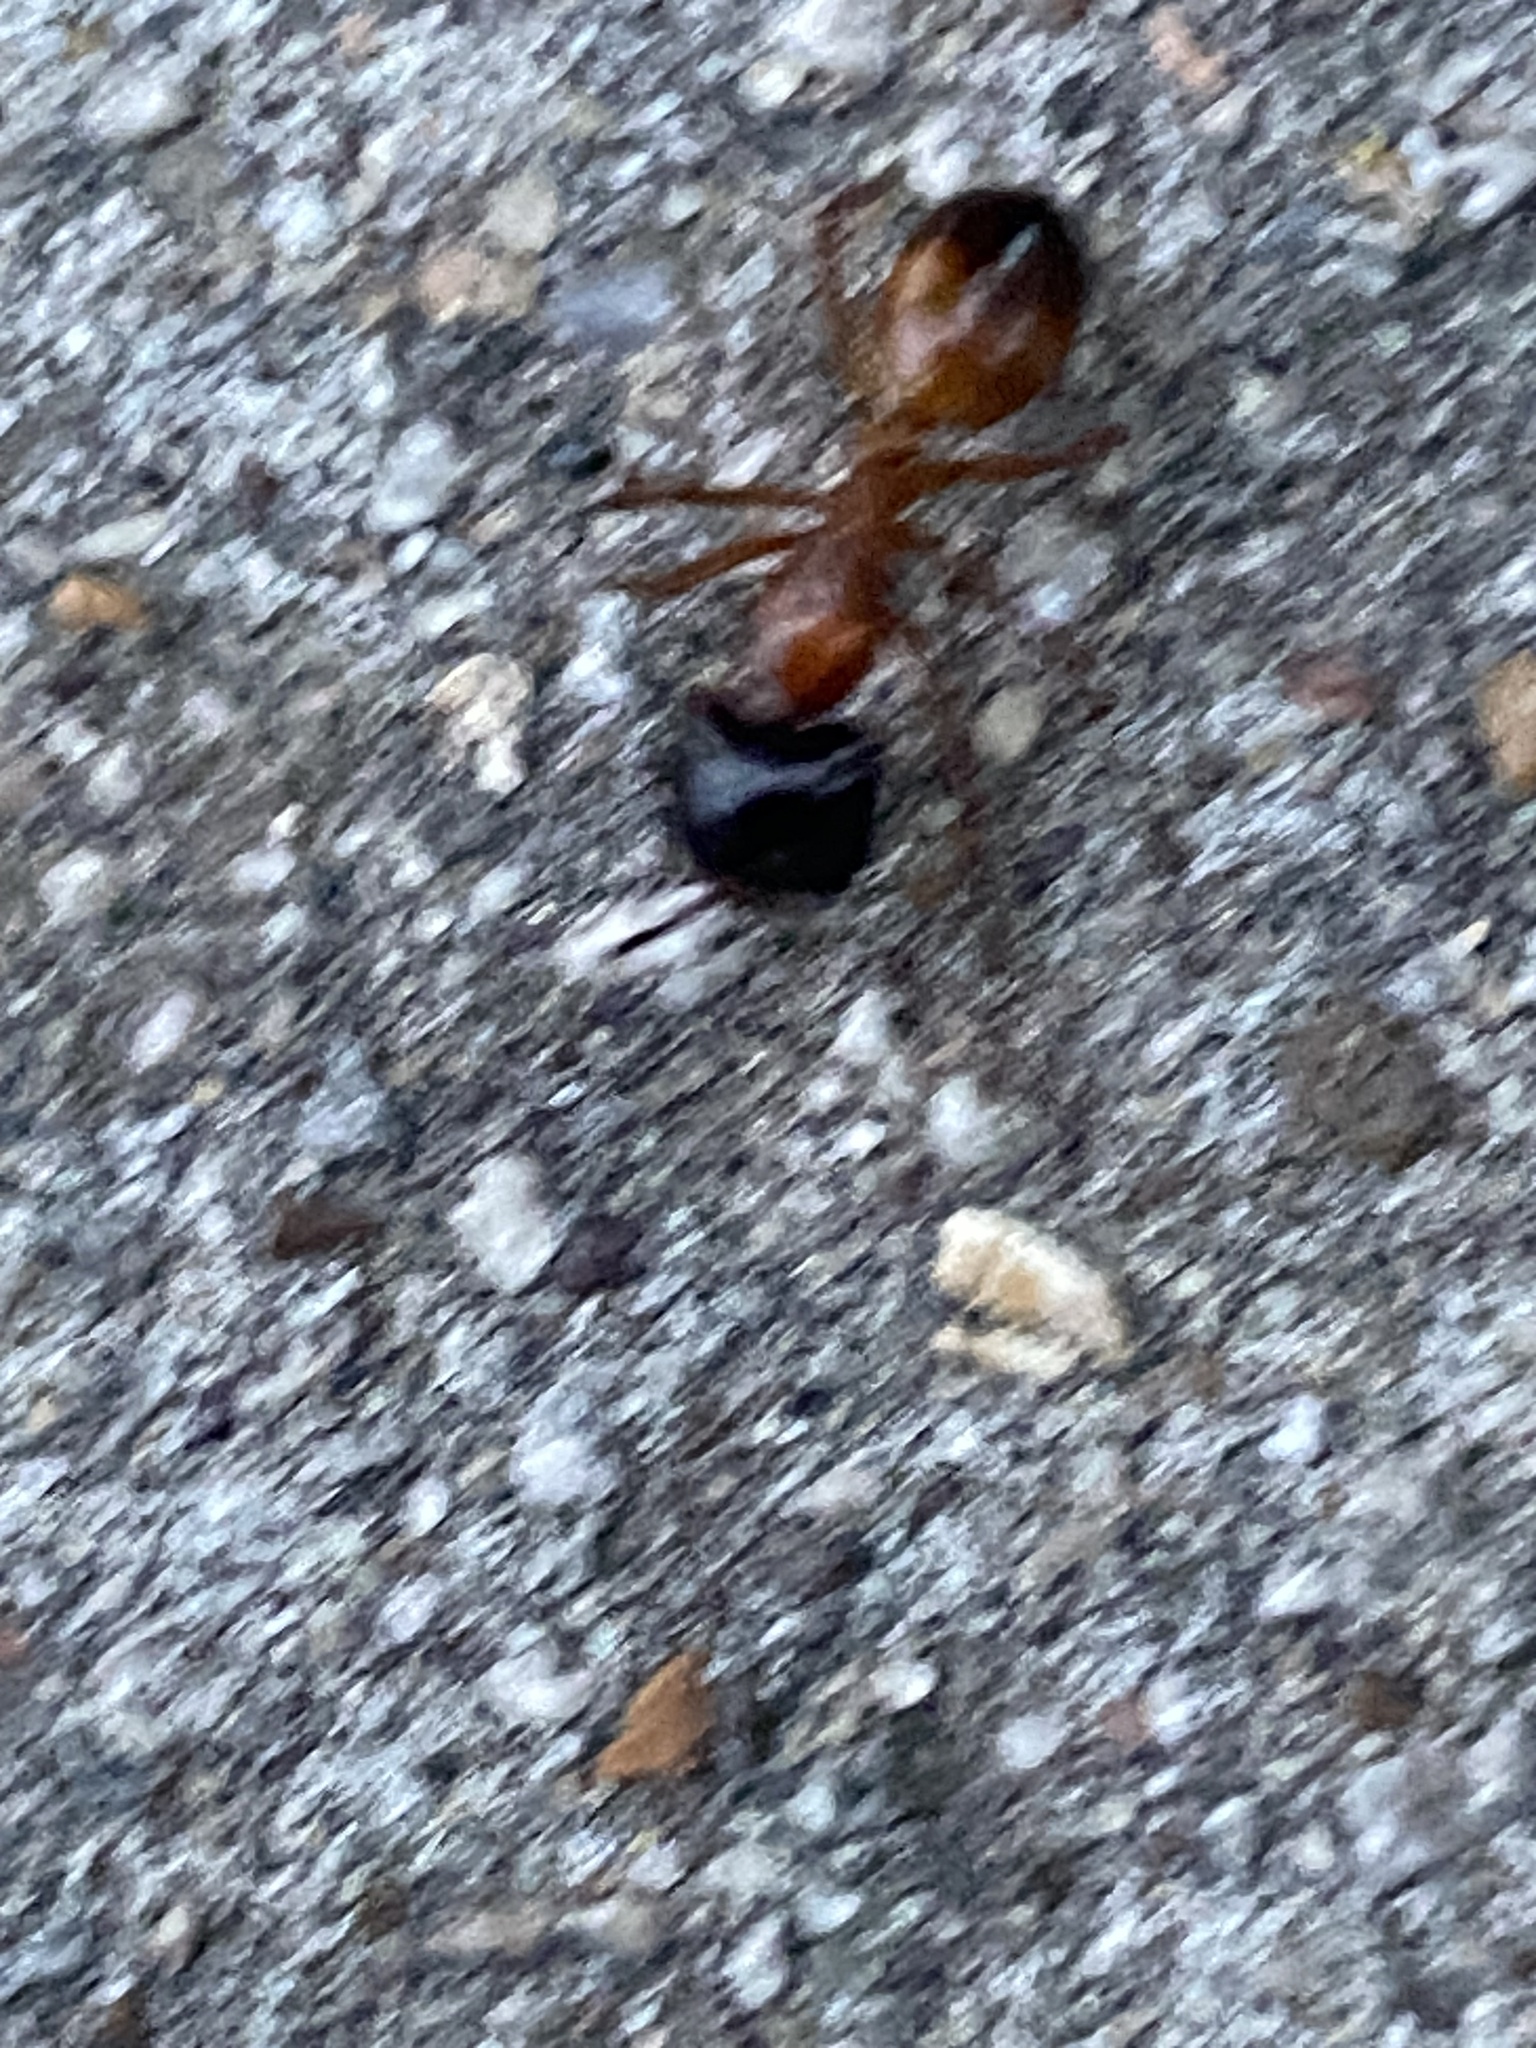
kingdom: Animalia
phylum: Arthropoda
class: Insecta
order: Hymenoptera
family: Formicidae
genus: Camponotus
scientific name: Camponotus sansabeanus
